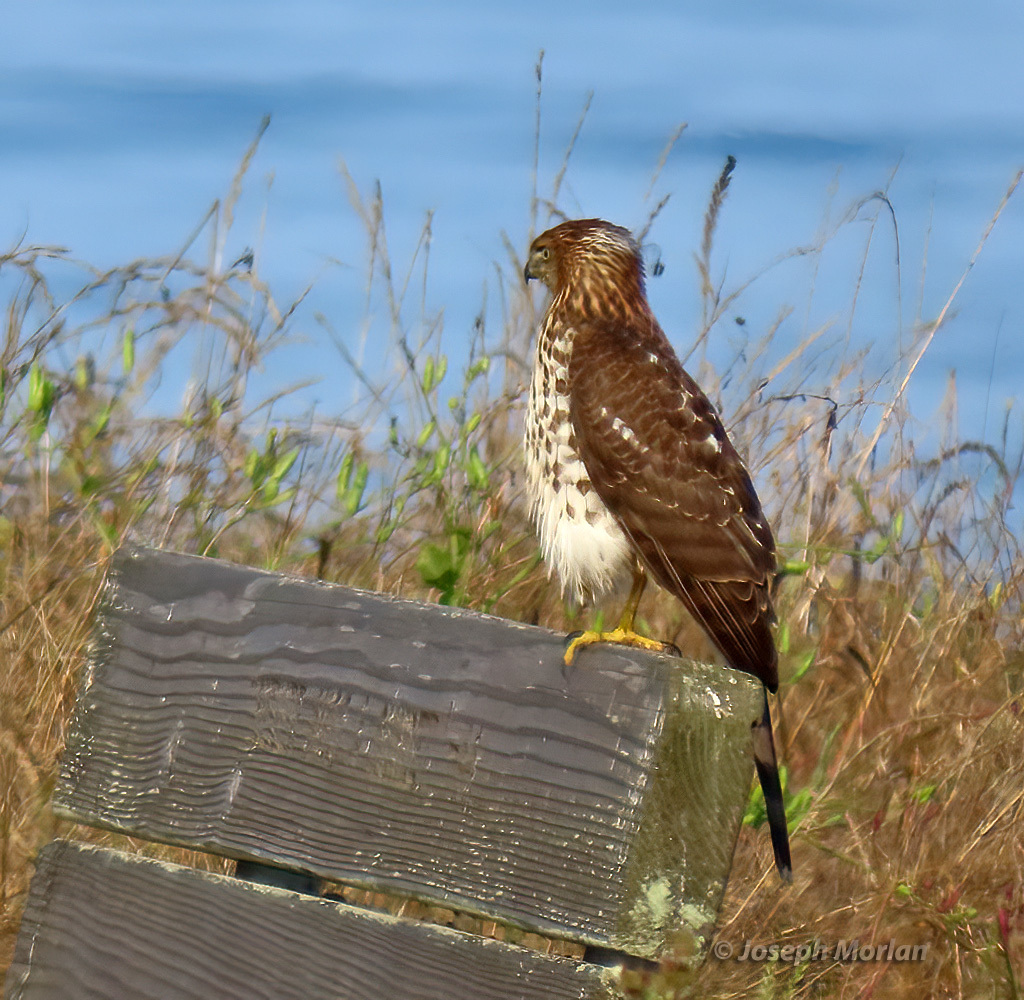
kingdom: Animalia
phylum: Chordata
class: Aves
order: Accipitriformes
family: Accipitridae
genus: Accipiter
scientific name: Accipiter cooperii
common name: Cooper's hawk
